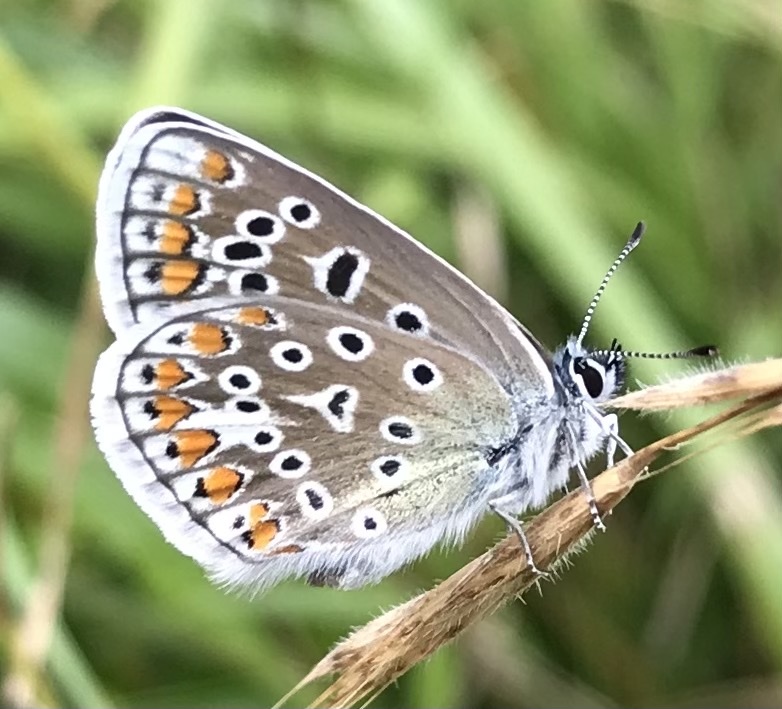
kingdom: Animalia
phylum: Arthropoda
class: Insecta
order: Lepidoptera
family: Lycaenidae
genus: Polyommatus
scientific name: Polyommatus icarus
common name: Common blue
